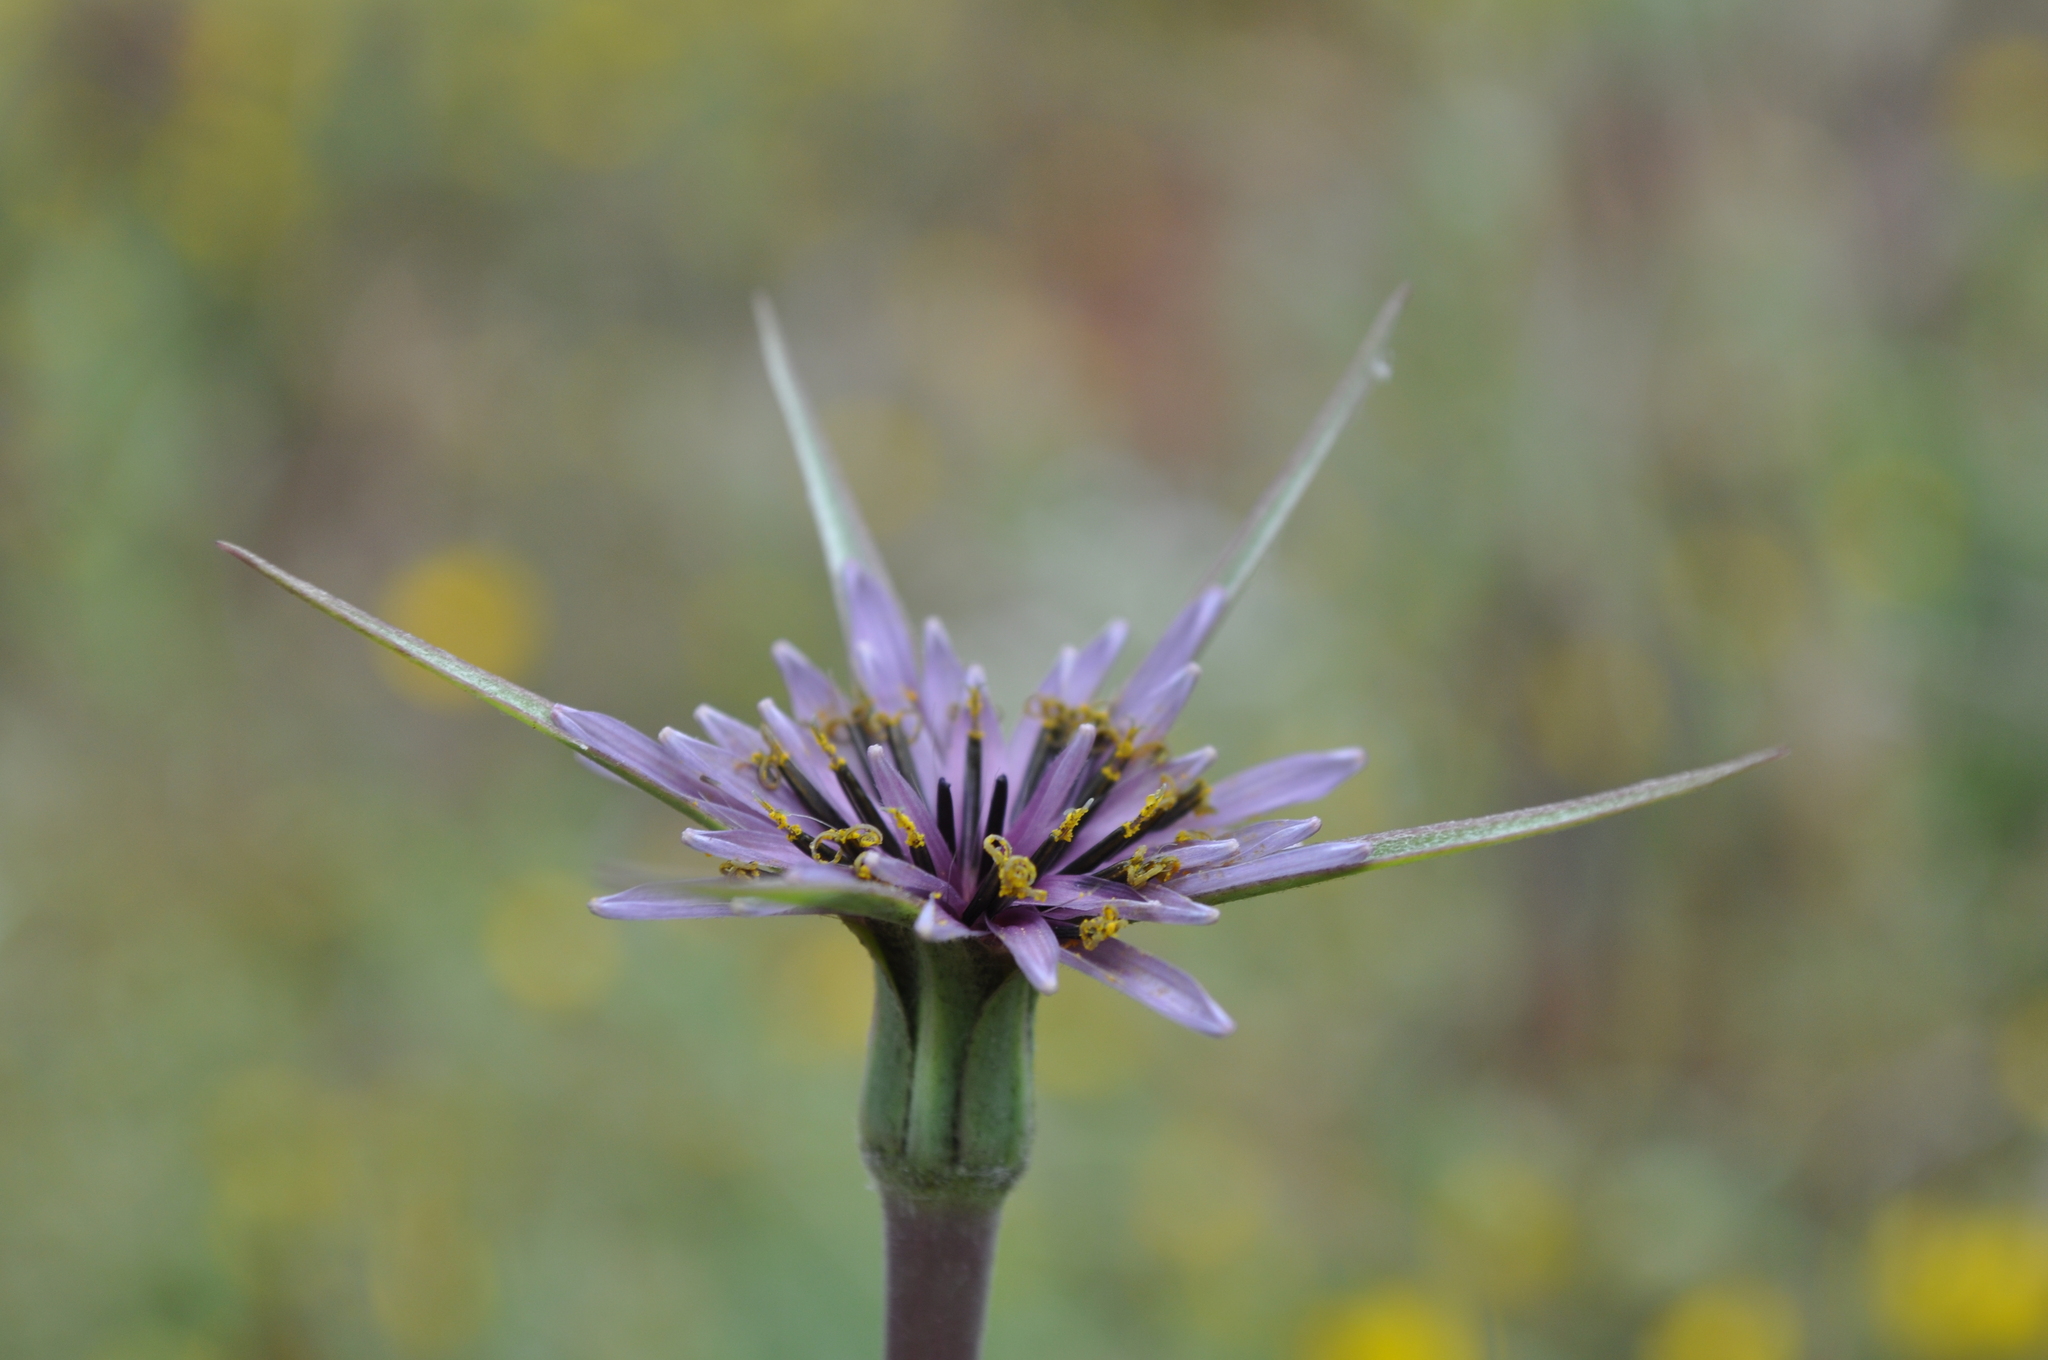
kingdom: Plantae
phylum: Tracheophyta
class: Magnoliopsida
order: Asterales
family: Asteraceae
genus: Tragopogon
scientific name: Tragopogon porrifolius
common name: Salsify
